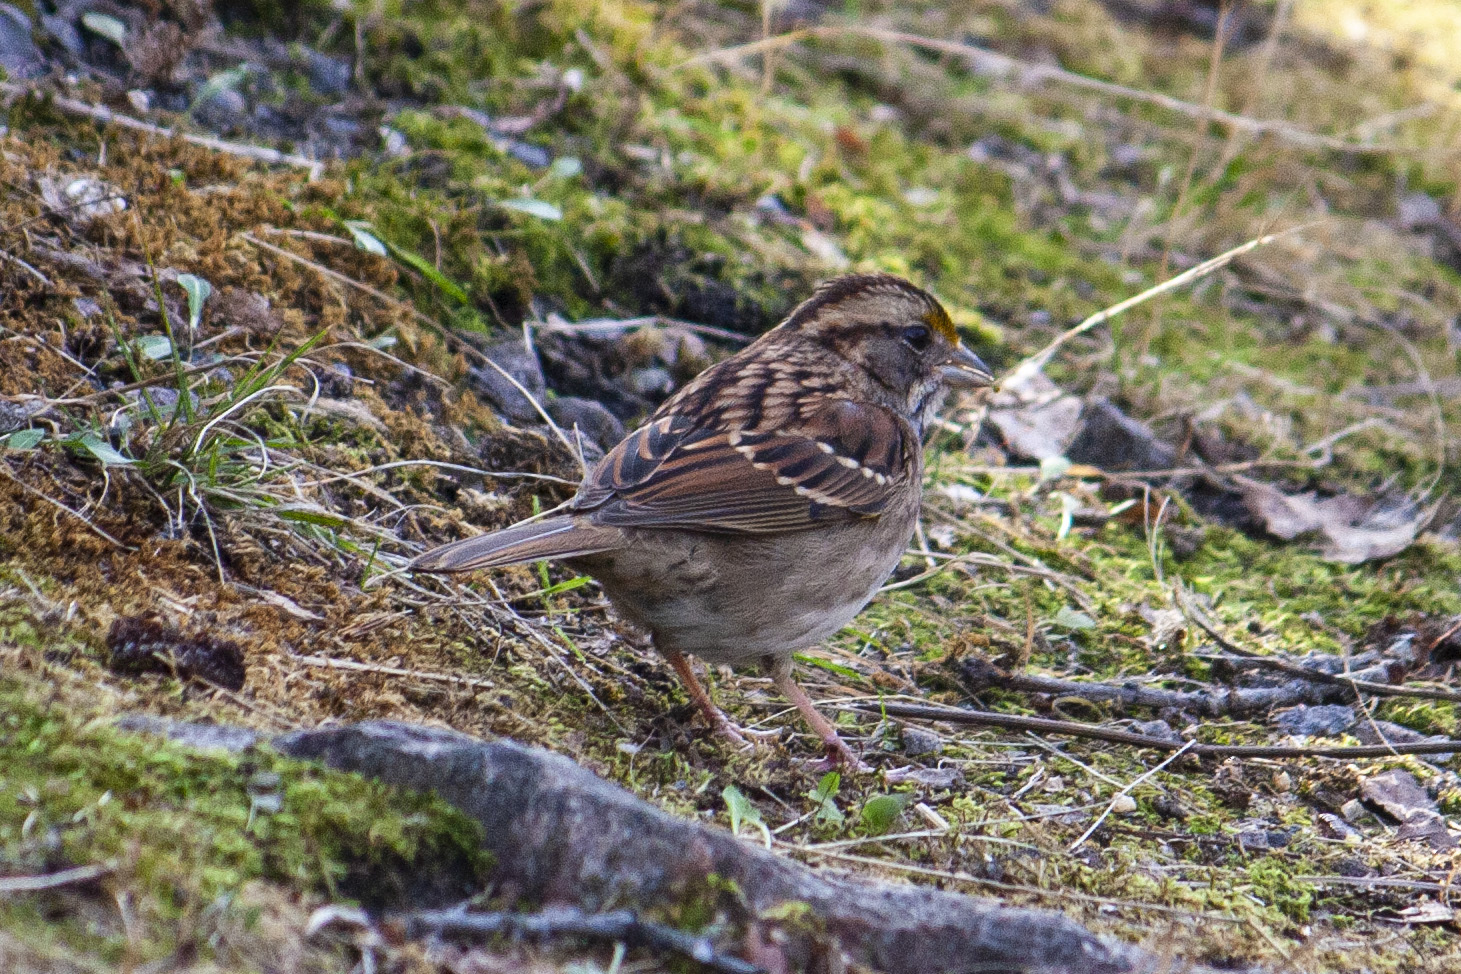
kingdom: Animalia
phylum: Chordata
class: Aves
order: Passeriformes
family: Passerellidae
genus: Zonotrichia
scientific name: Zonotrichia albicollis
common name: White-throated sparrow
